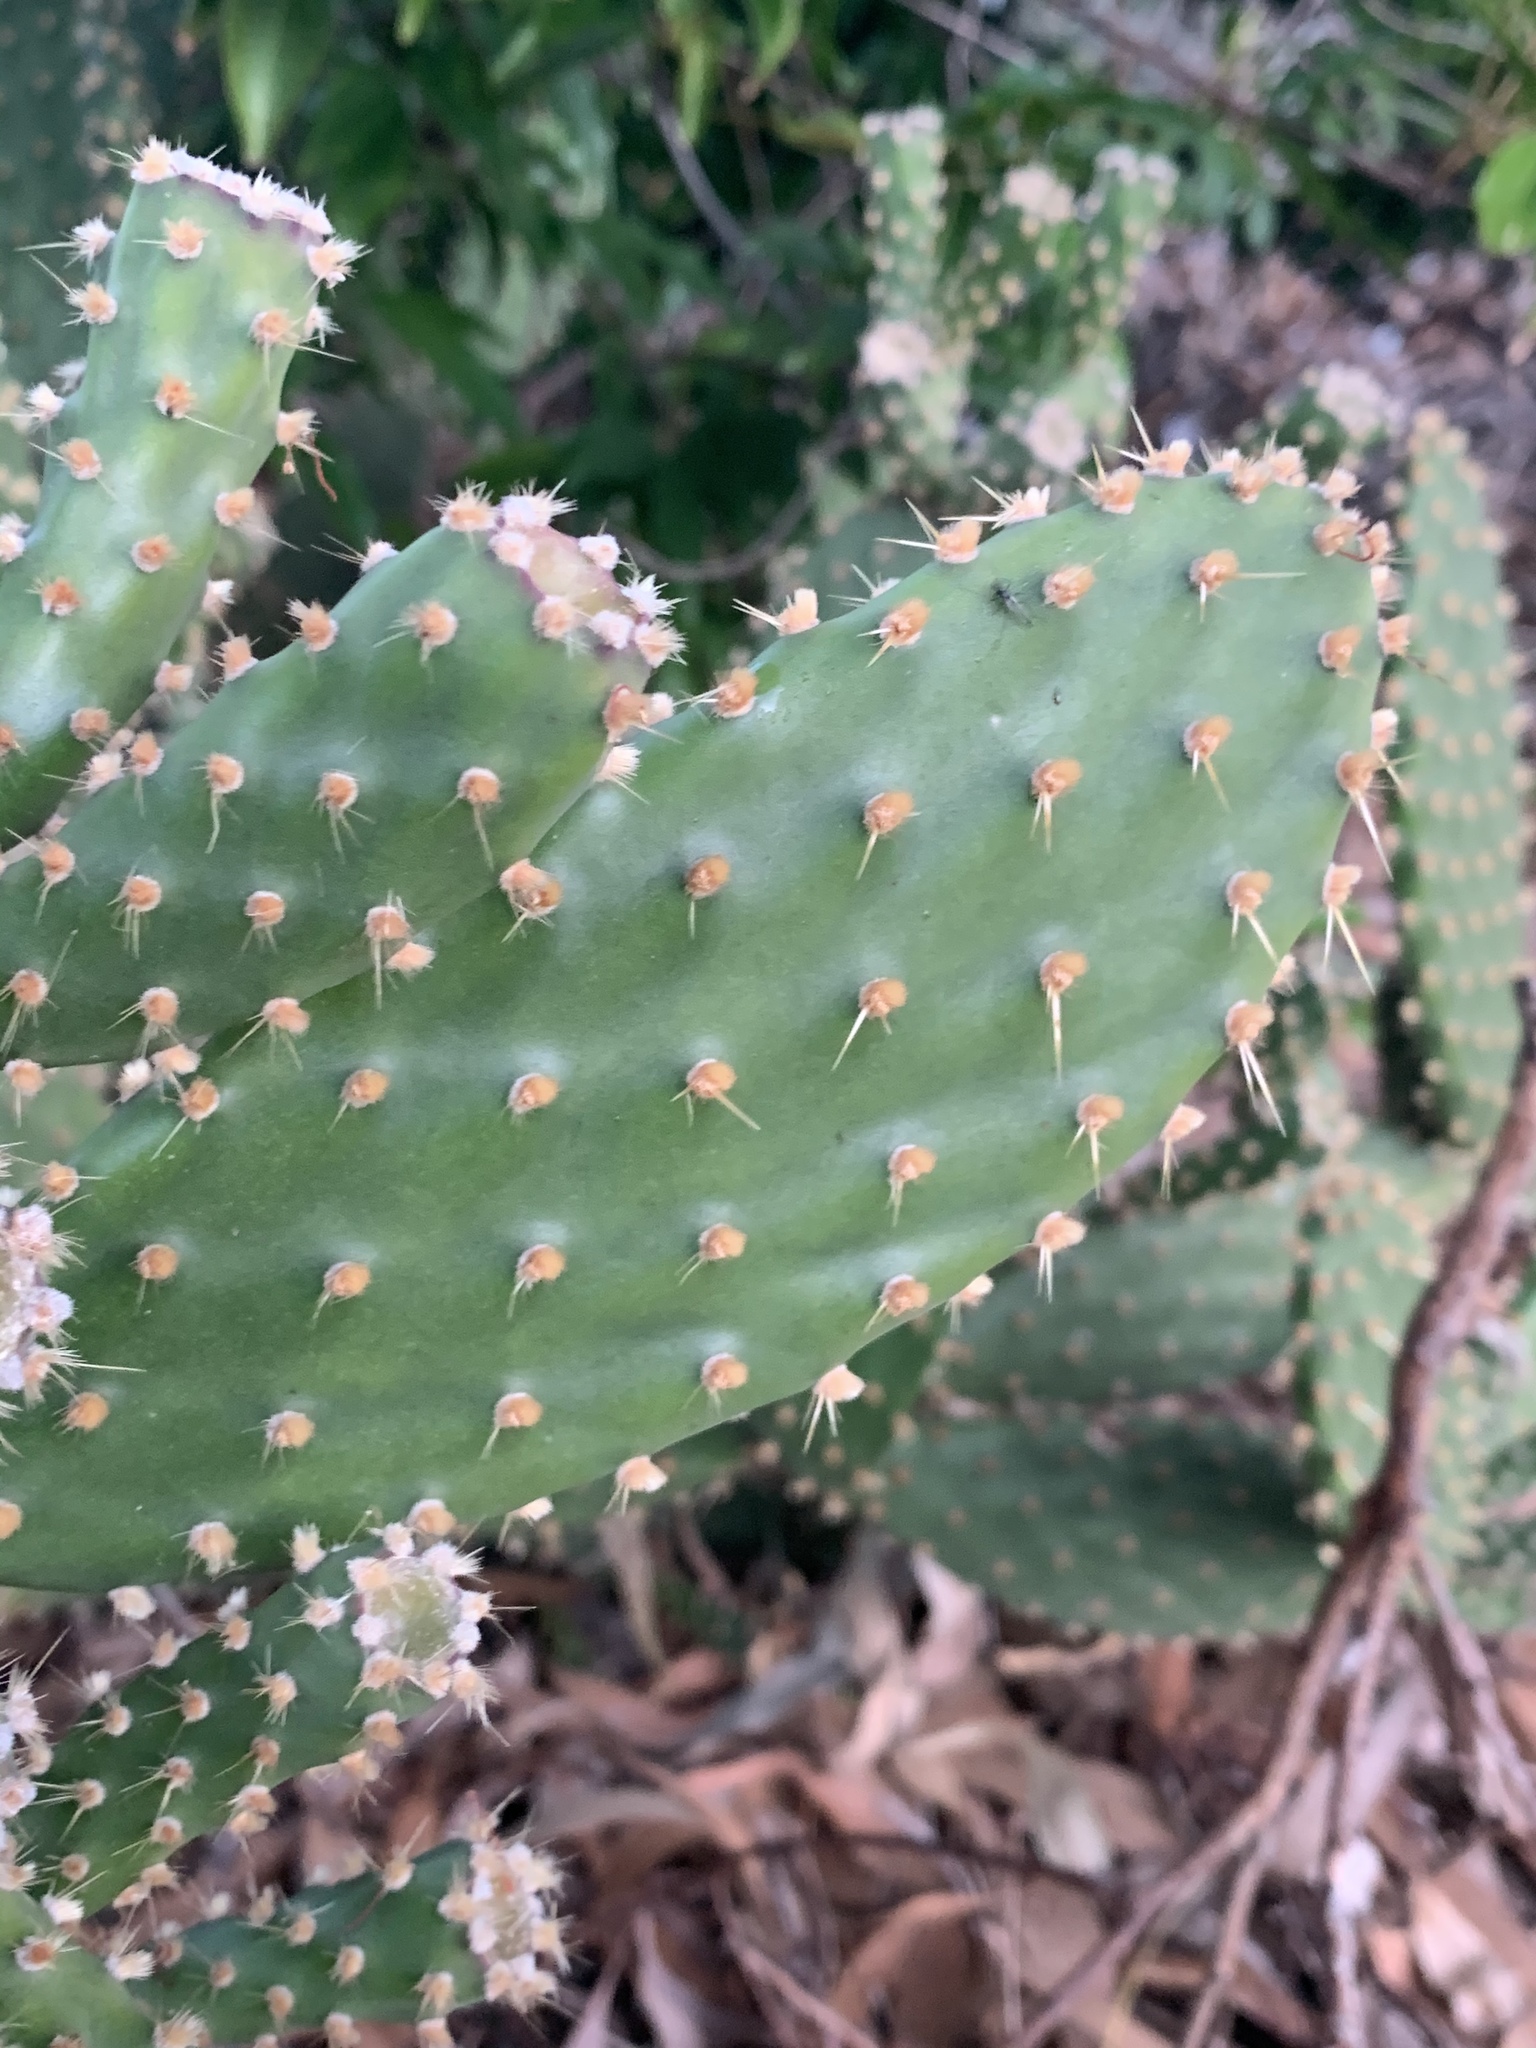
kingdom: Plantae
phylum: Tracheophyta
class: Magnoliopsida
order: Caryophyllales
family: Cactaceae
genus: Opuntia
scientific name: Opuntia puberula
